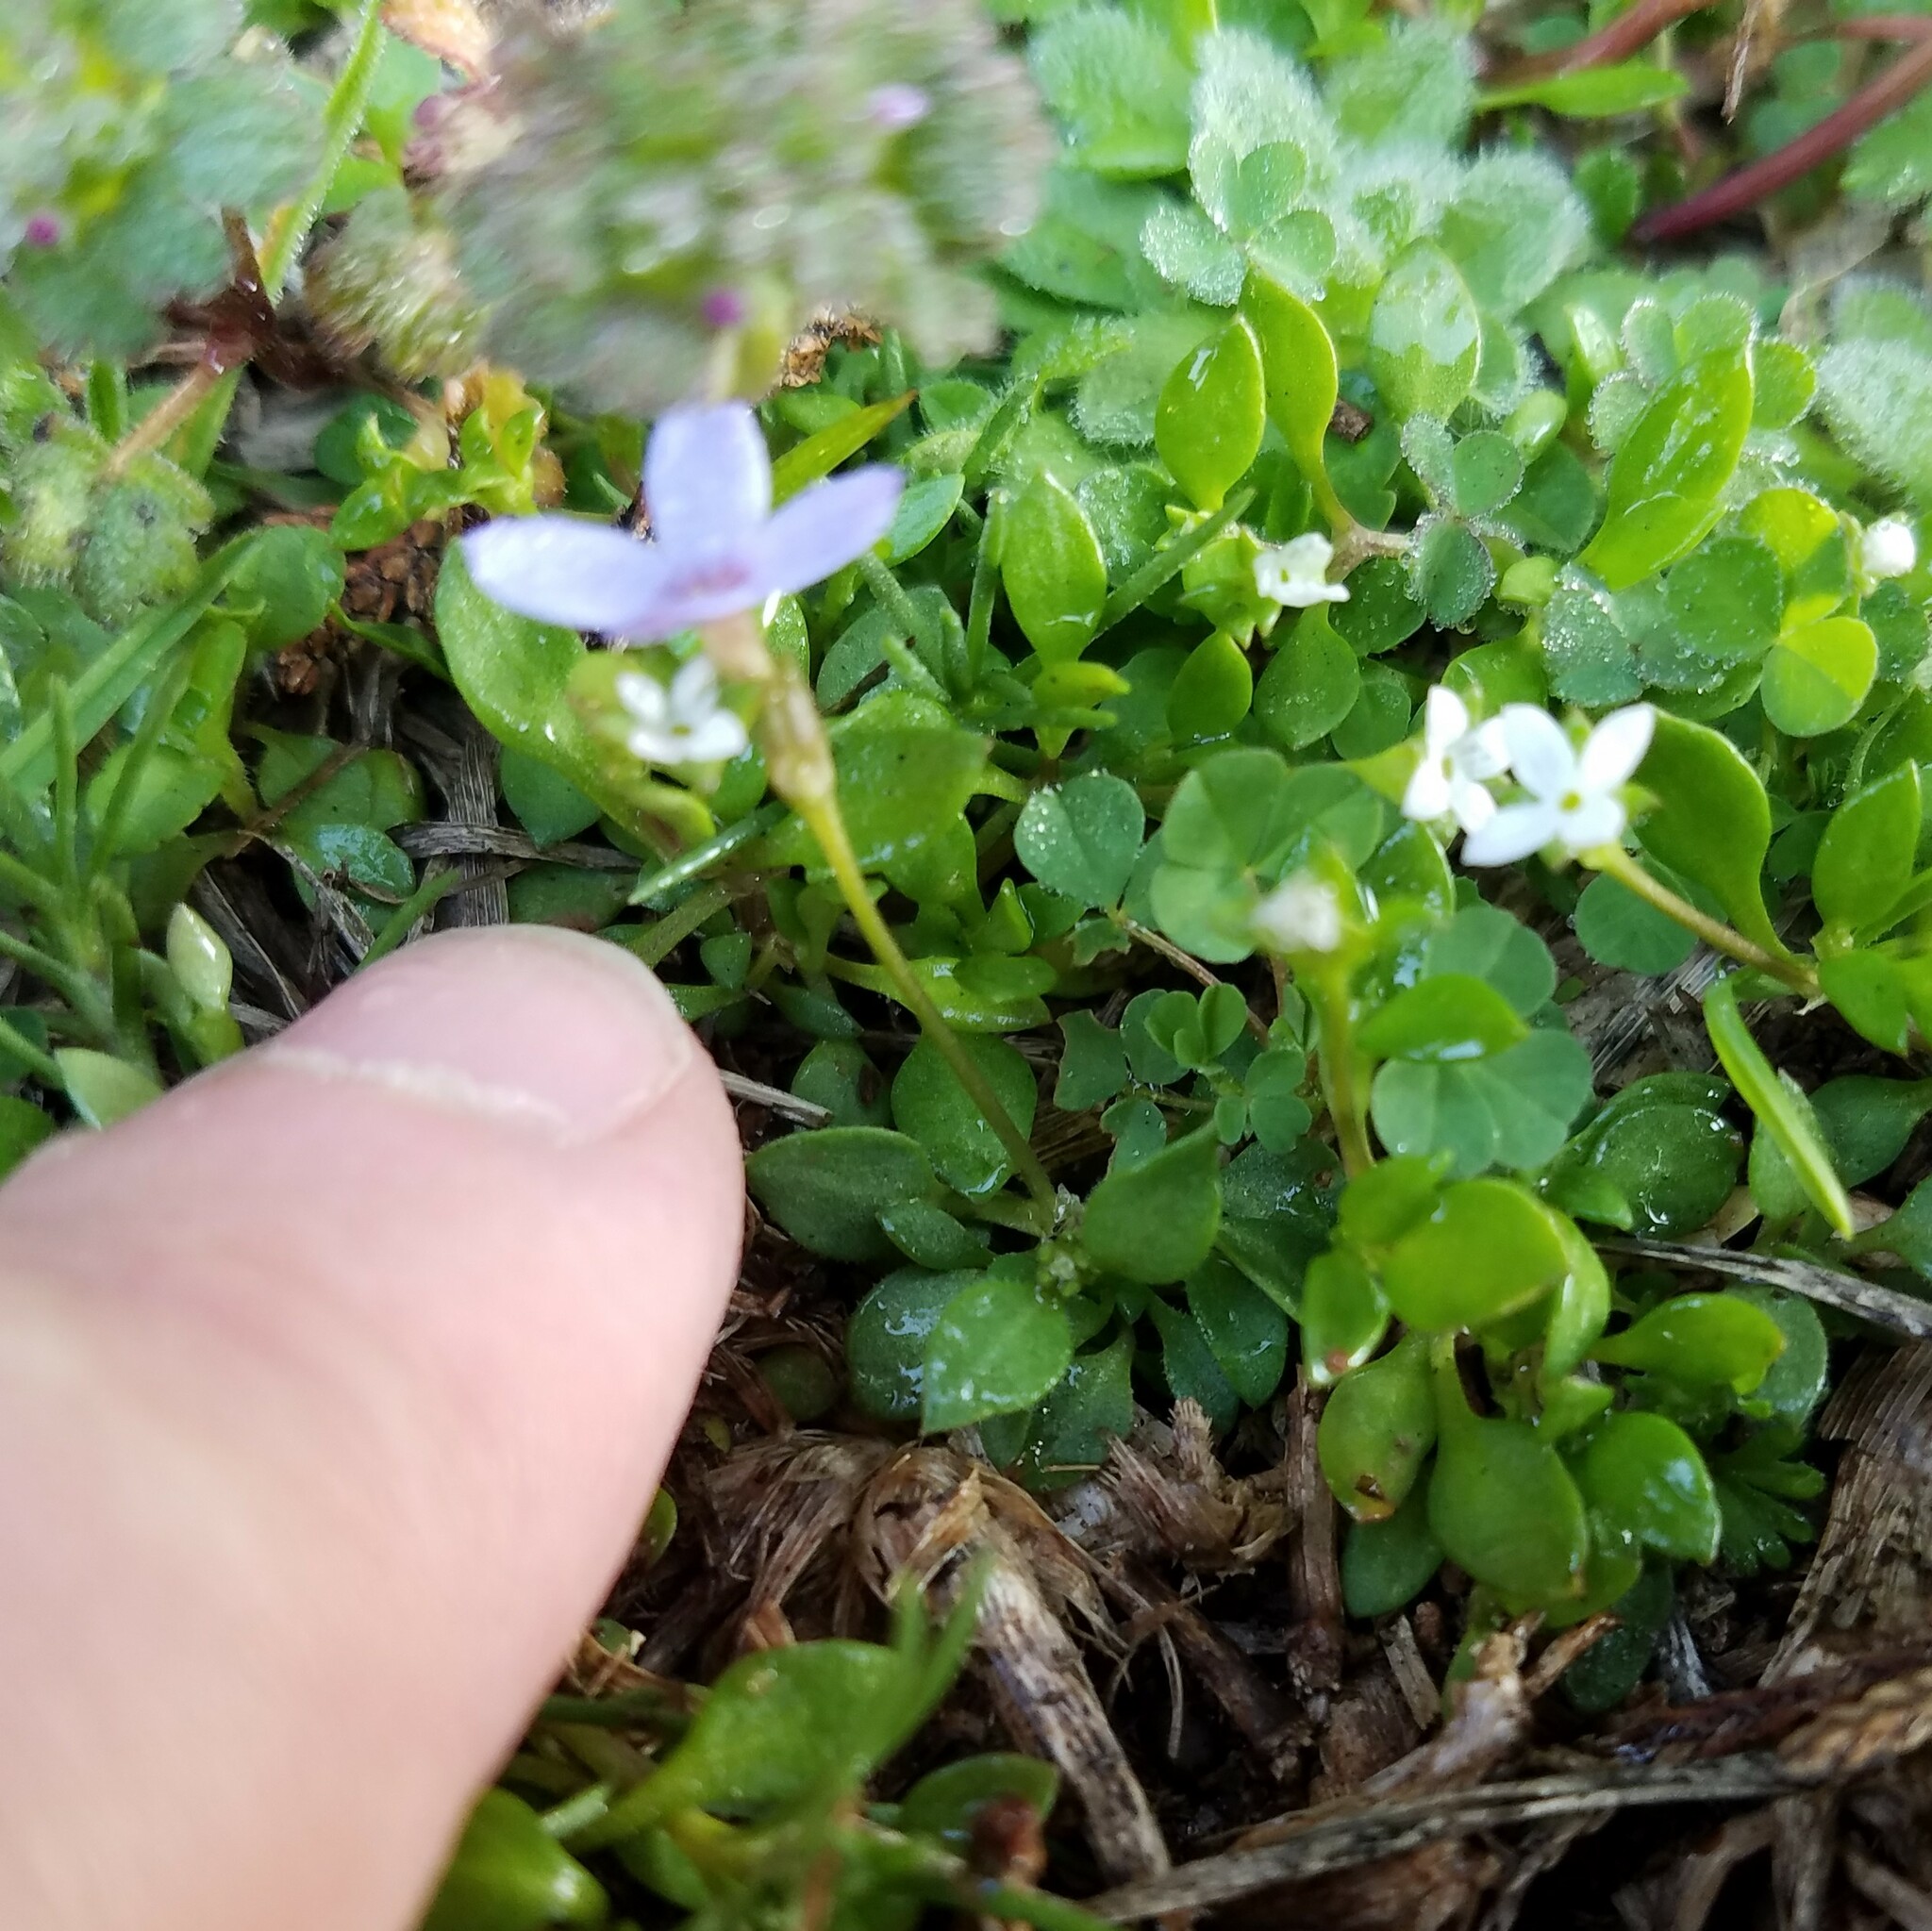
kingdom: Plantae
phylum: Tracheophyta
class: Magnoliopsida
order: Gentianales
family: Rubiaceae
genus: Houstonia
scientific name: Houstonia pusilla
